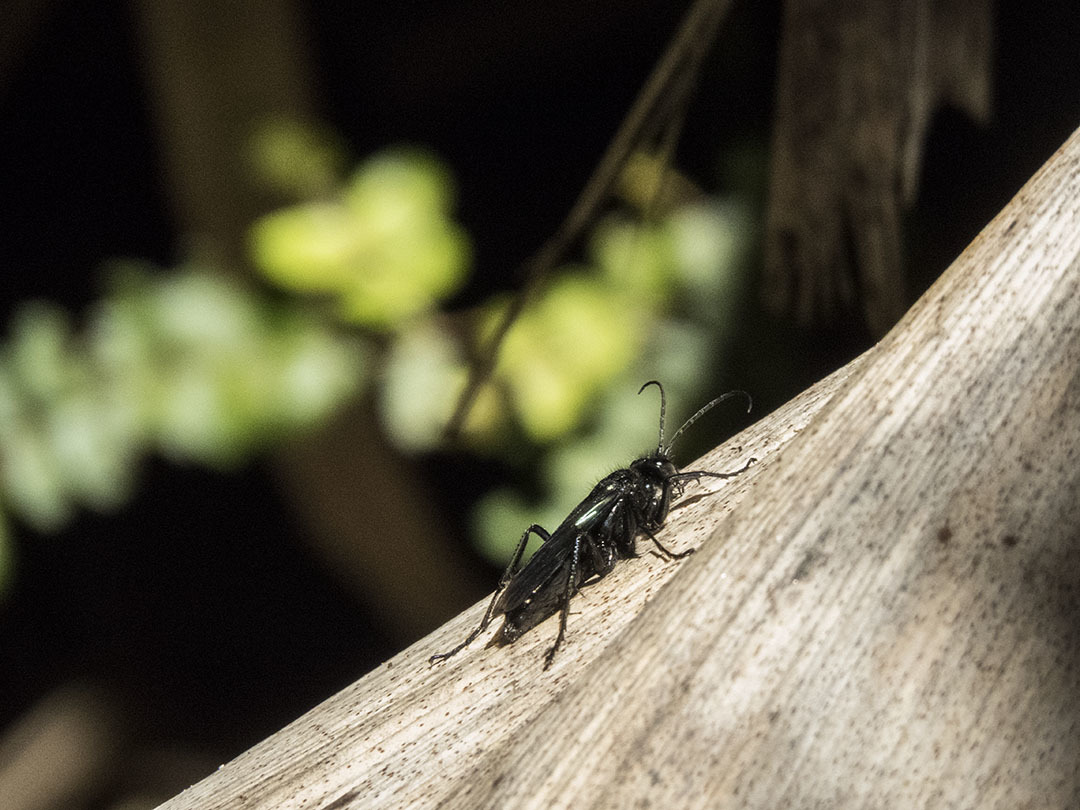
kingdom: Animalia
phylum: Arthropoda
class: Insecta
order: Hymenoptera
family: Pompilidae
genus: Priocnemis
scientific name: Priocnemis monachus
